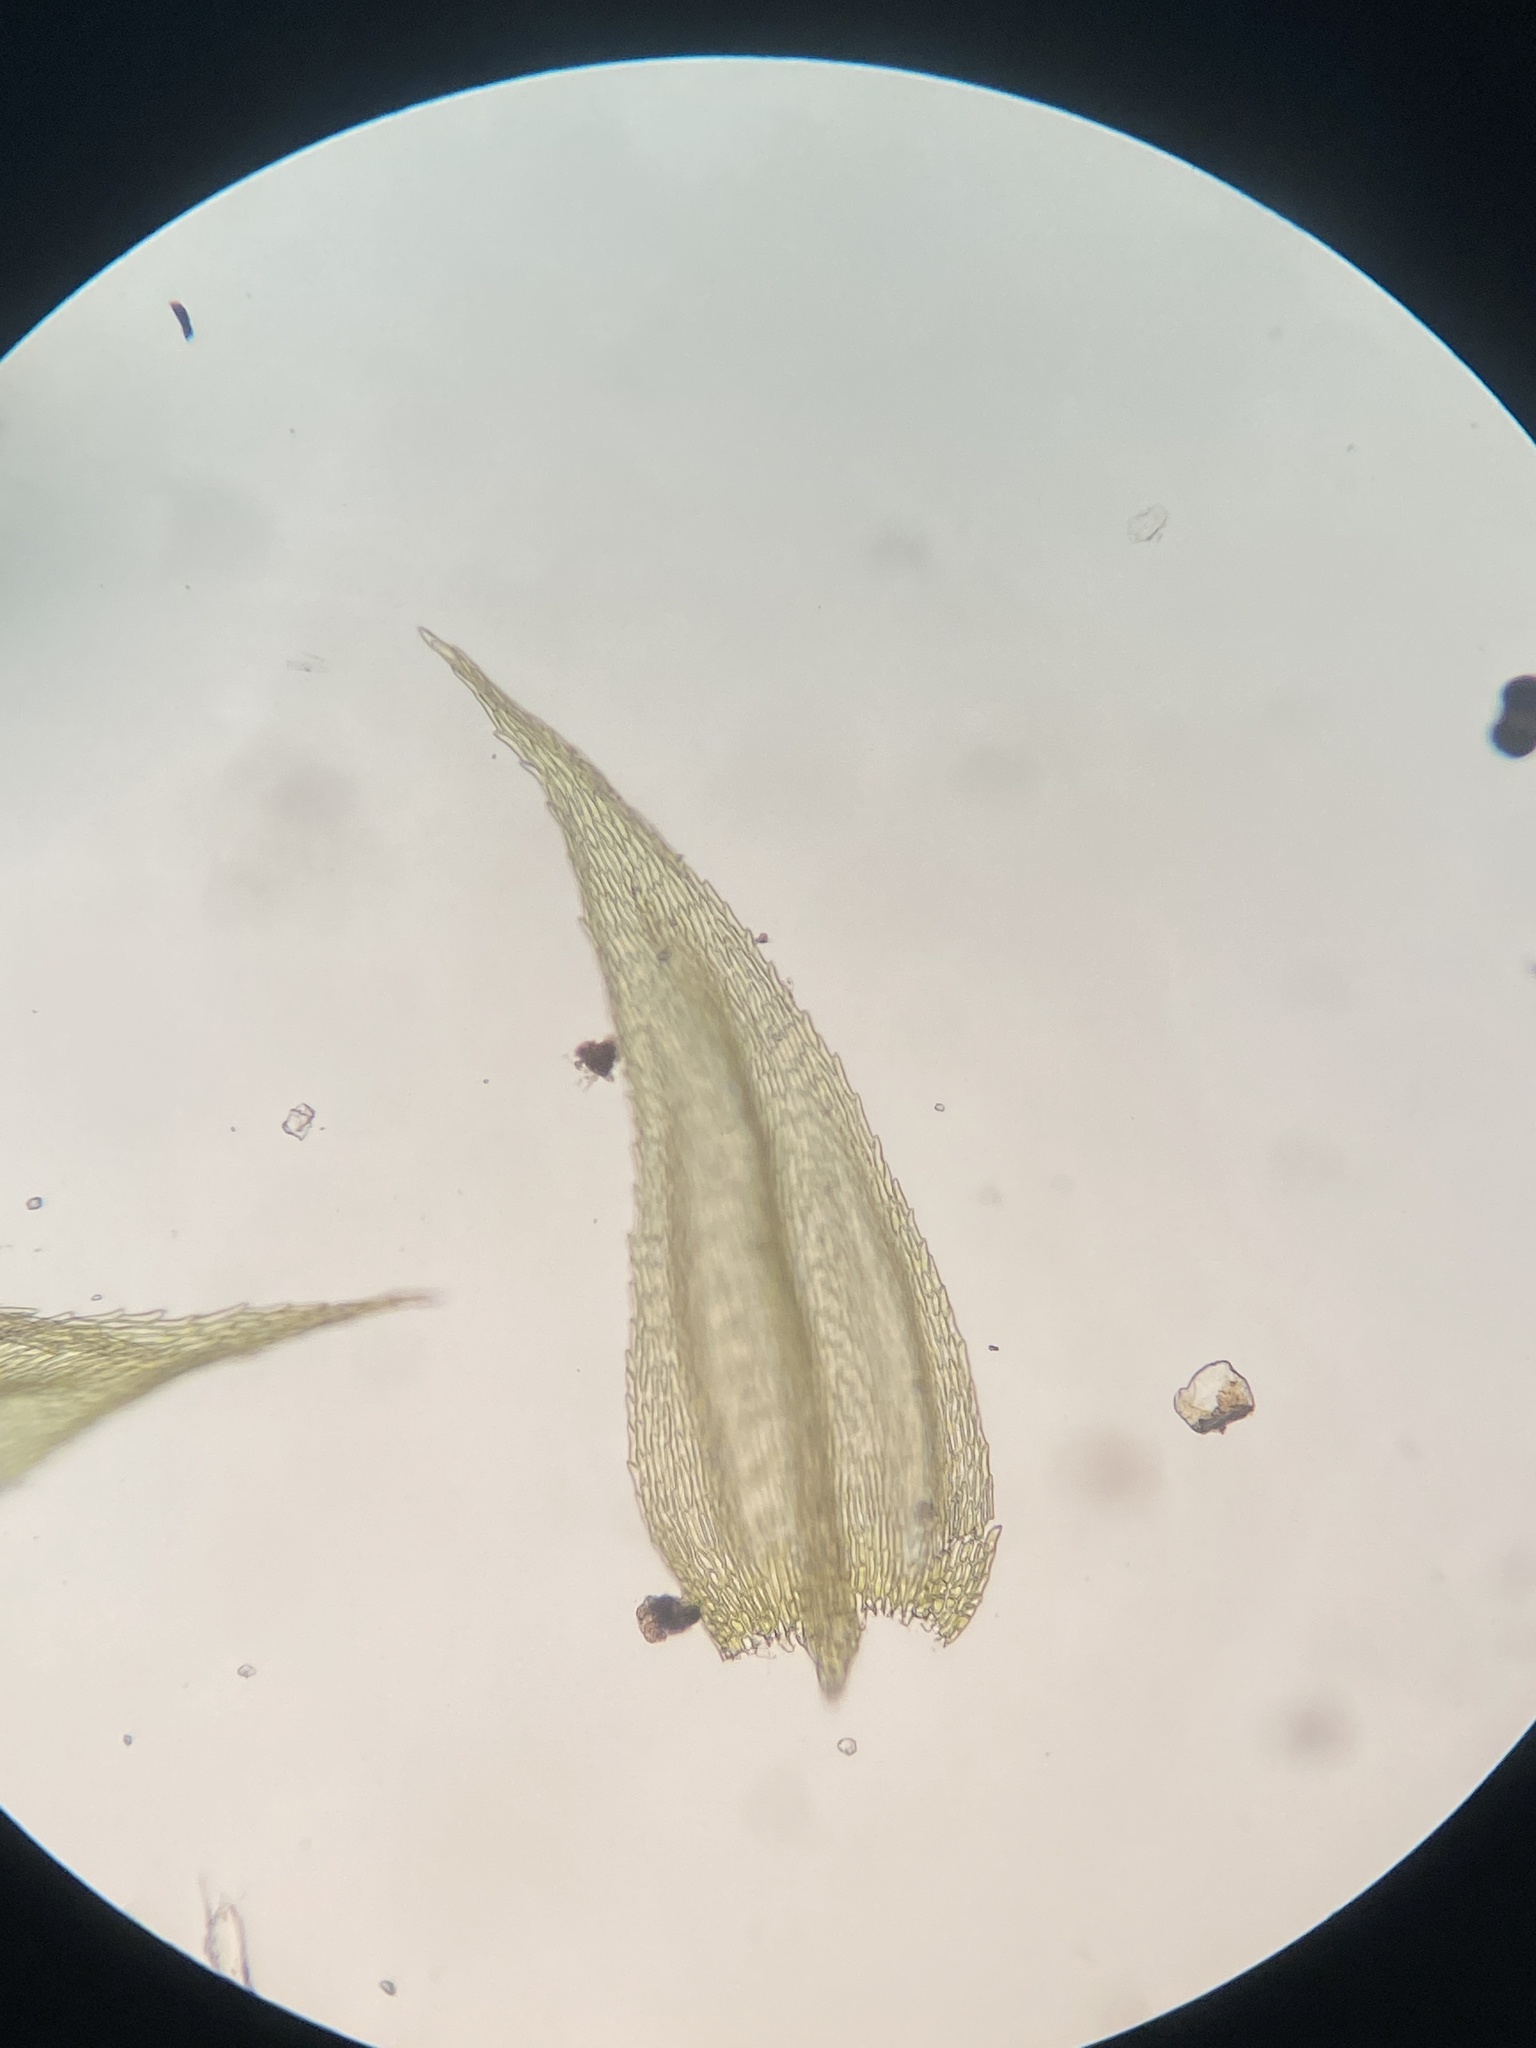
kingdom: Plantae
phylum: Bryophyta
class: Bryopsida
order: Hypnales
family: Brachytheciaceae
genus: Brachytheciastrum
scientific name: Brachytheciastrum velutinum
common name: Velvet feather-moss
